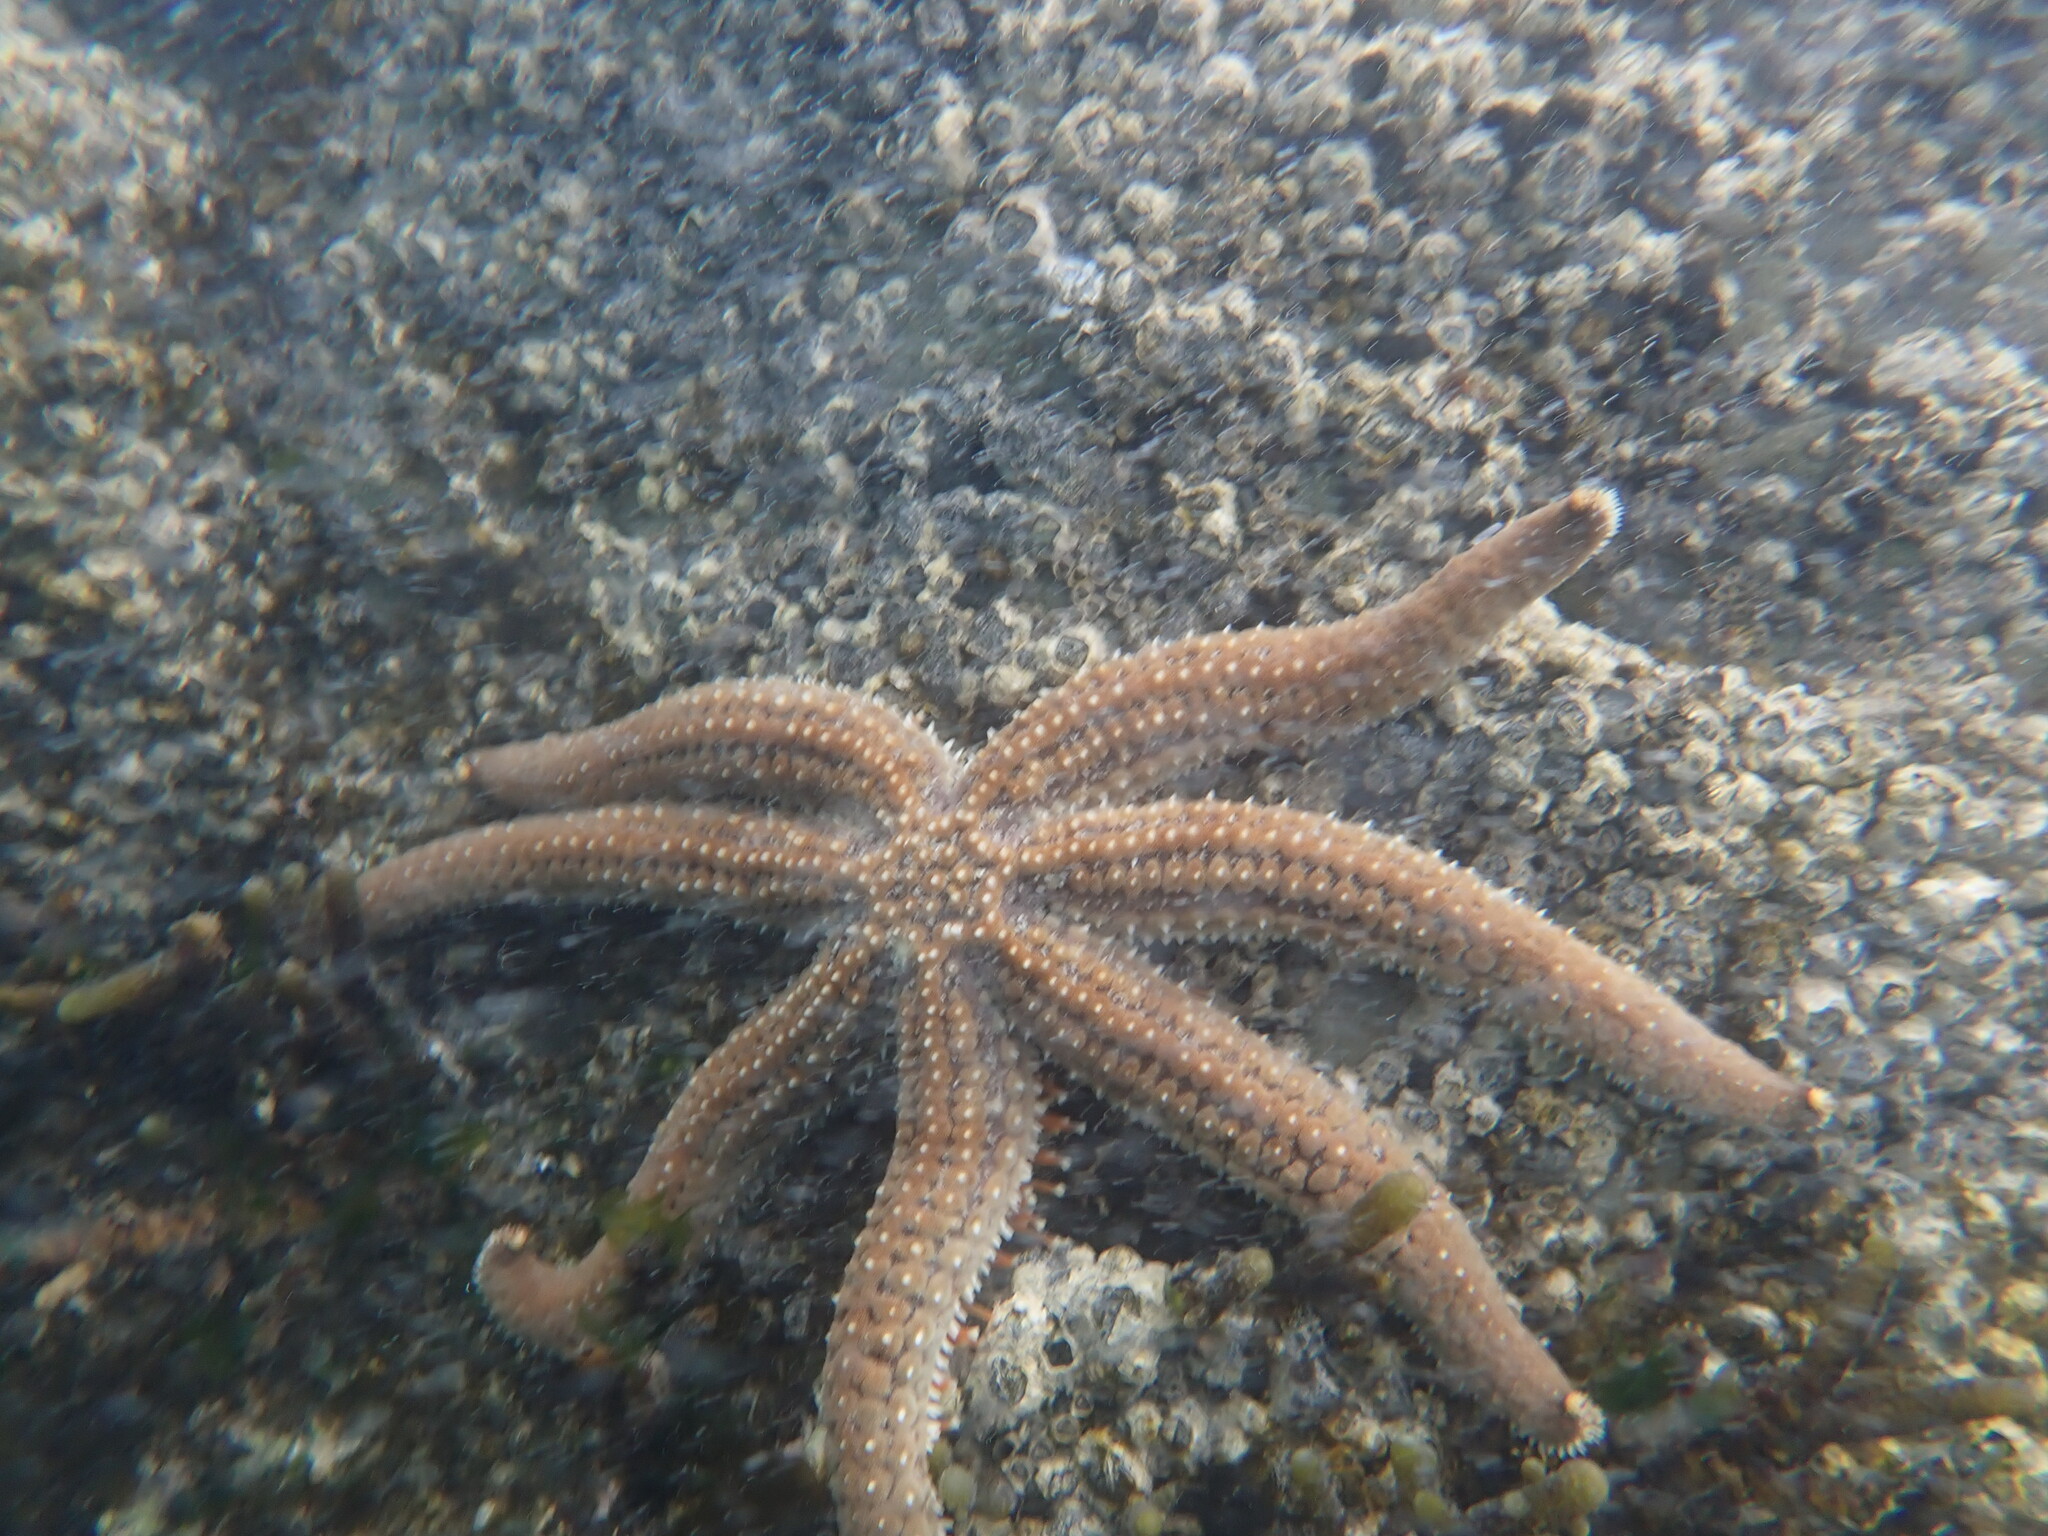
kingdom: Animalia
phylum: Echinodermata
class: Asteroidea
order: Forcipulatida
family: Asteriidae
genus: Astrostole
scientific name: Astrostole scabra
